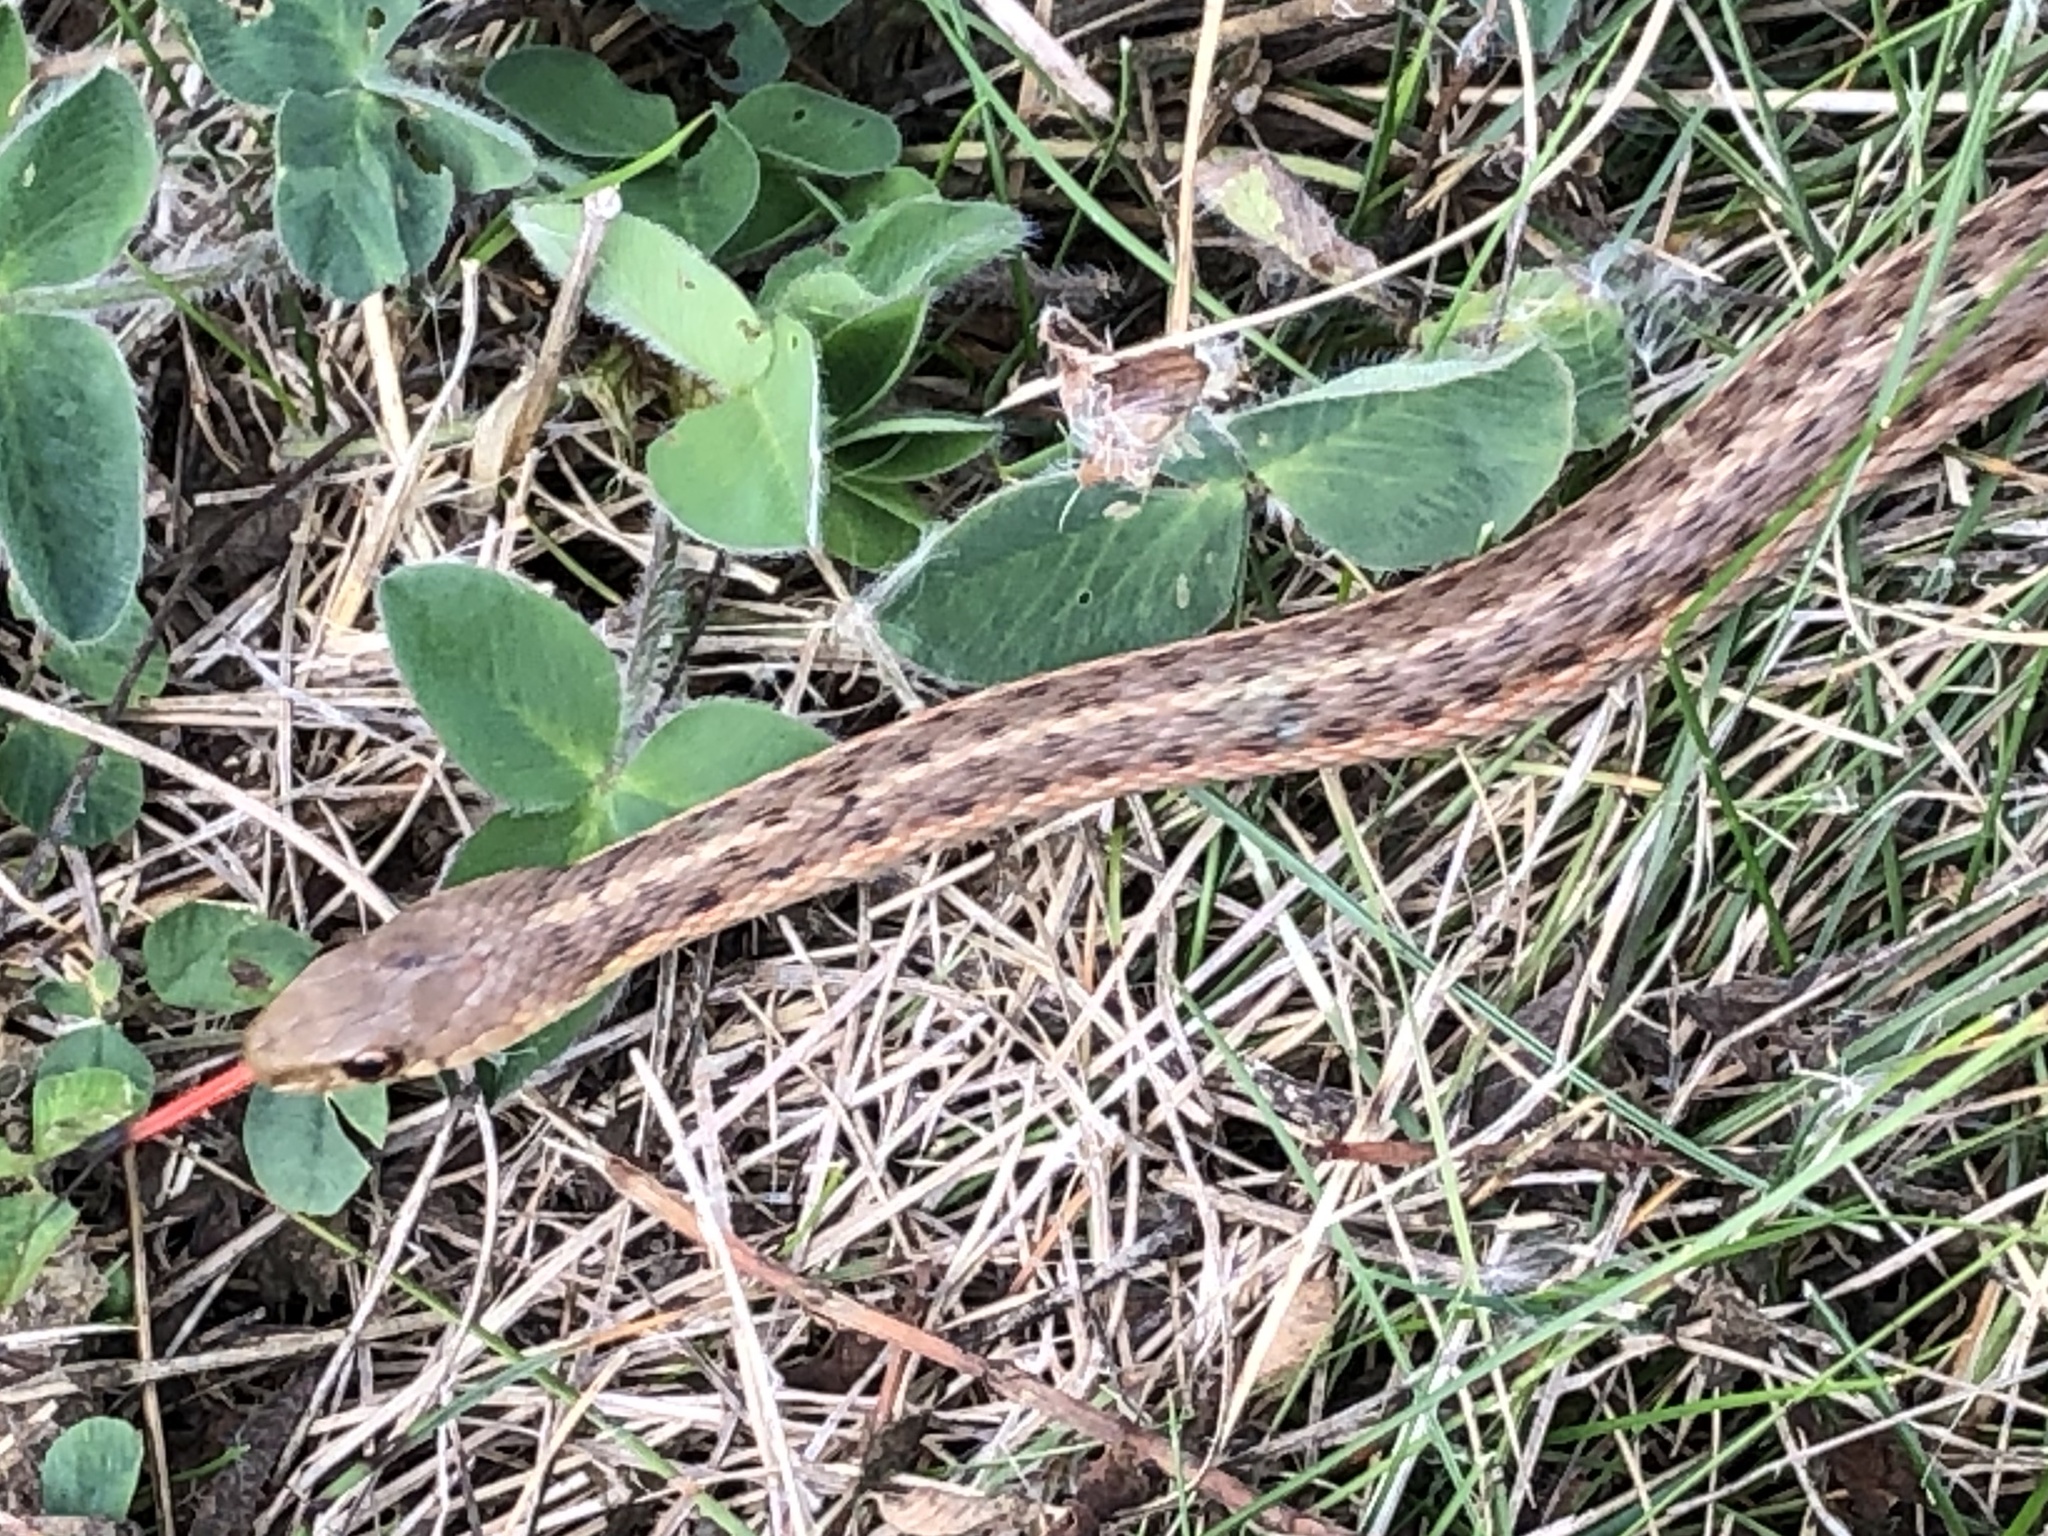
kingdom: Animalia
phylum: Chordata
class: Squamata
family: Colubridae
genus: Thamnophis
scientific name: Thamnophis sirtalis
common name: Common garter snake
